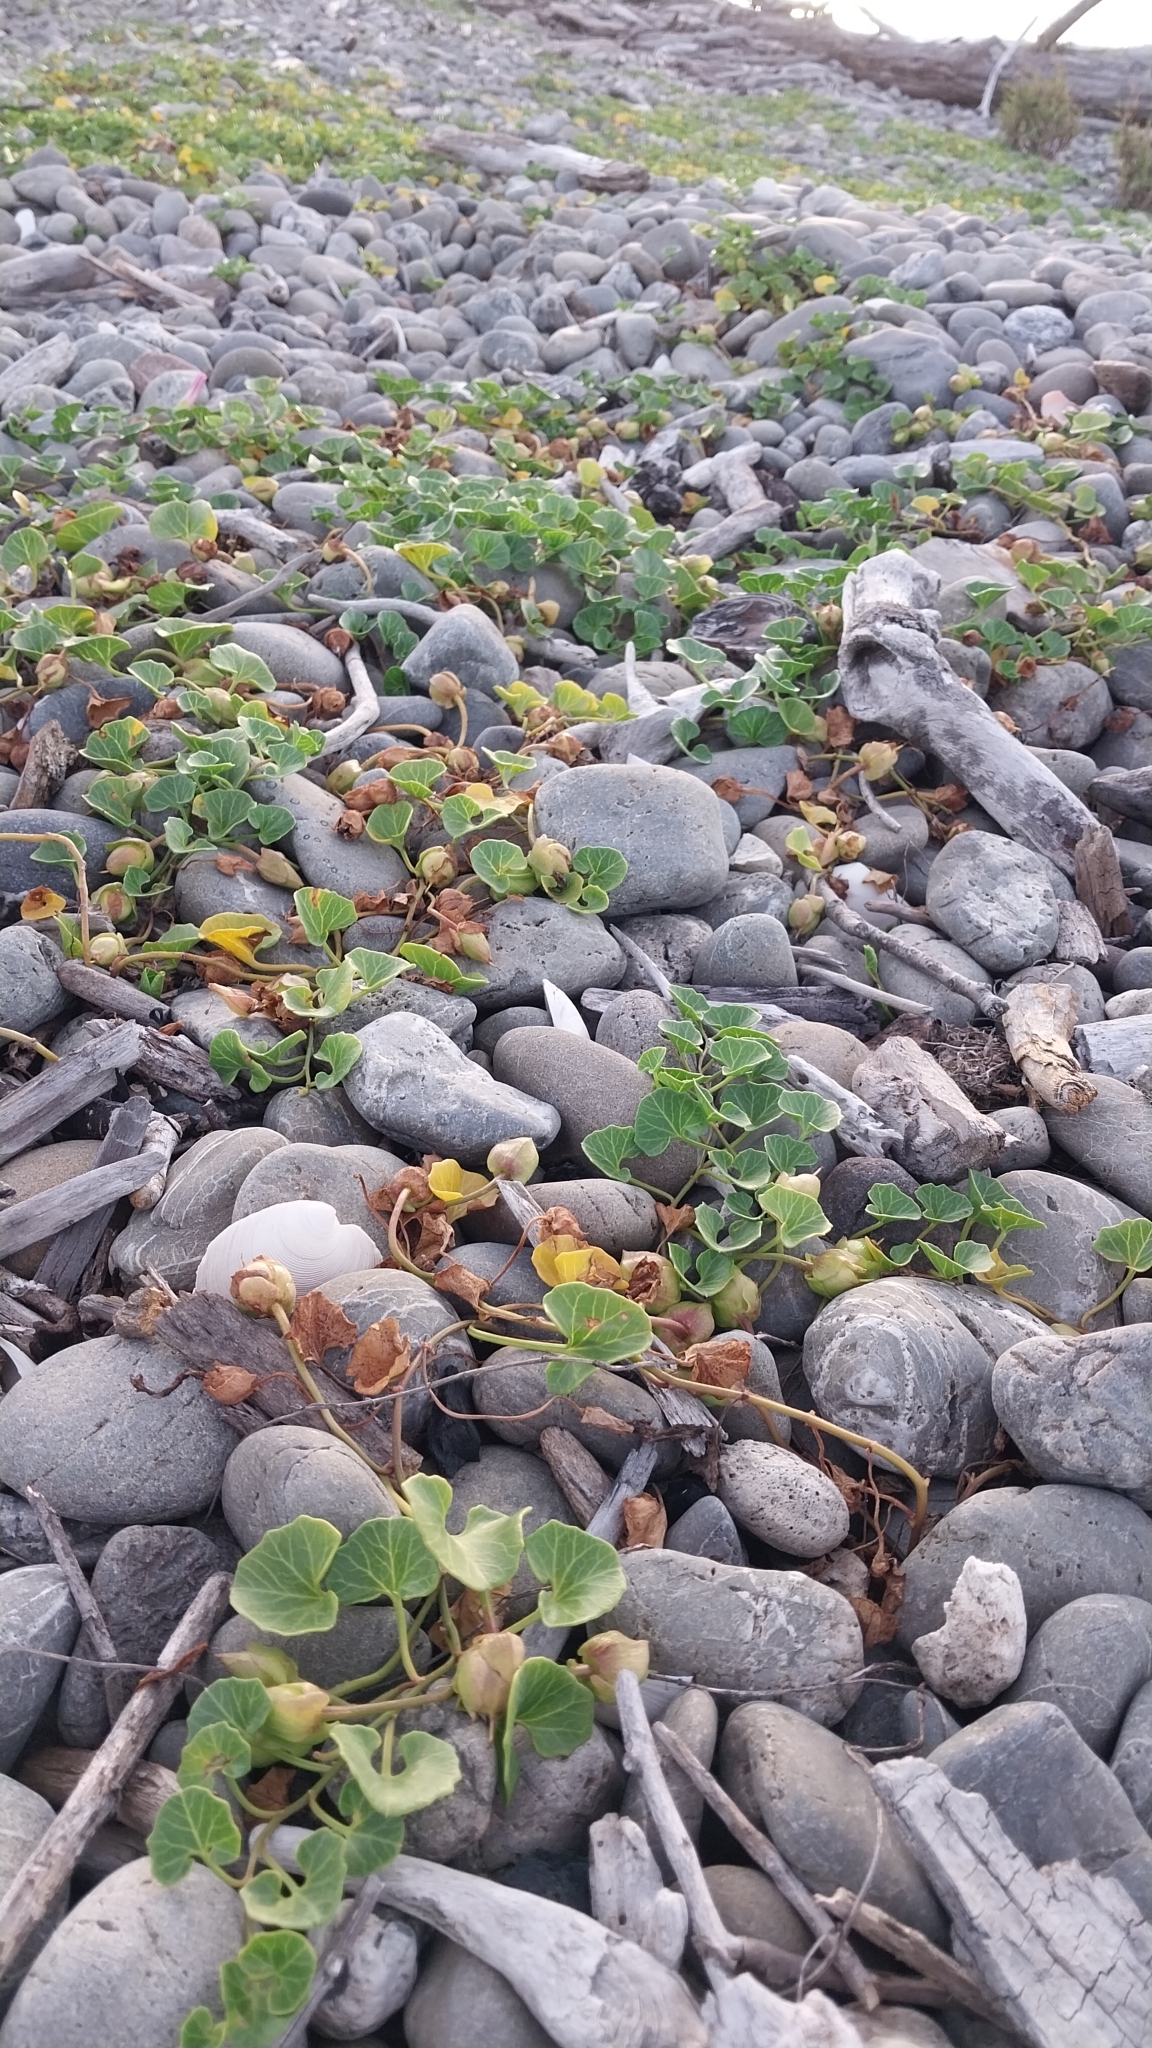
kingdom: Plantae
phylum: Tracheophyta
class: Magnoliopsida
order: Solanales
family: Convolvulaceae
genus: Calystegia
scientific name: Calystegia soldanella
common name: Sea bindweed
